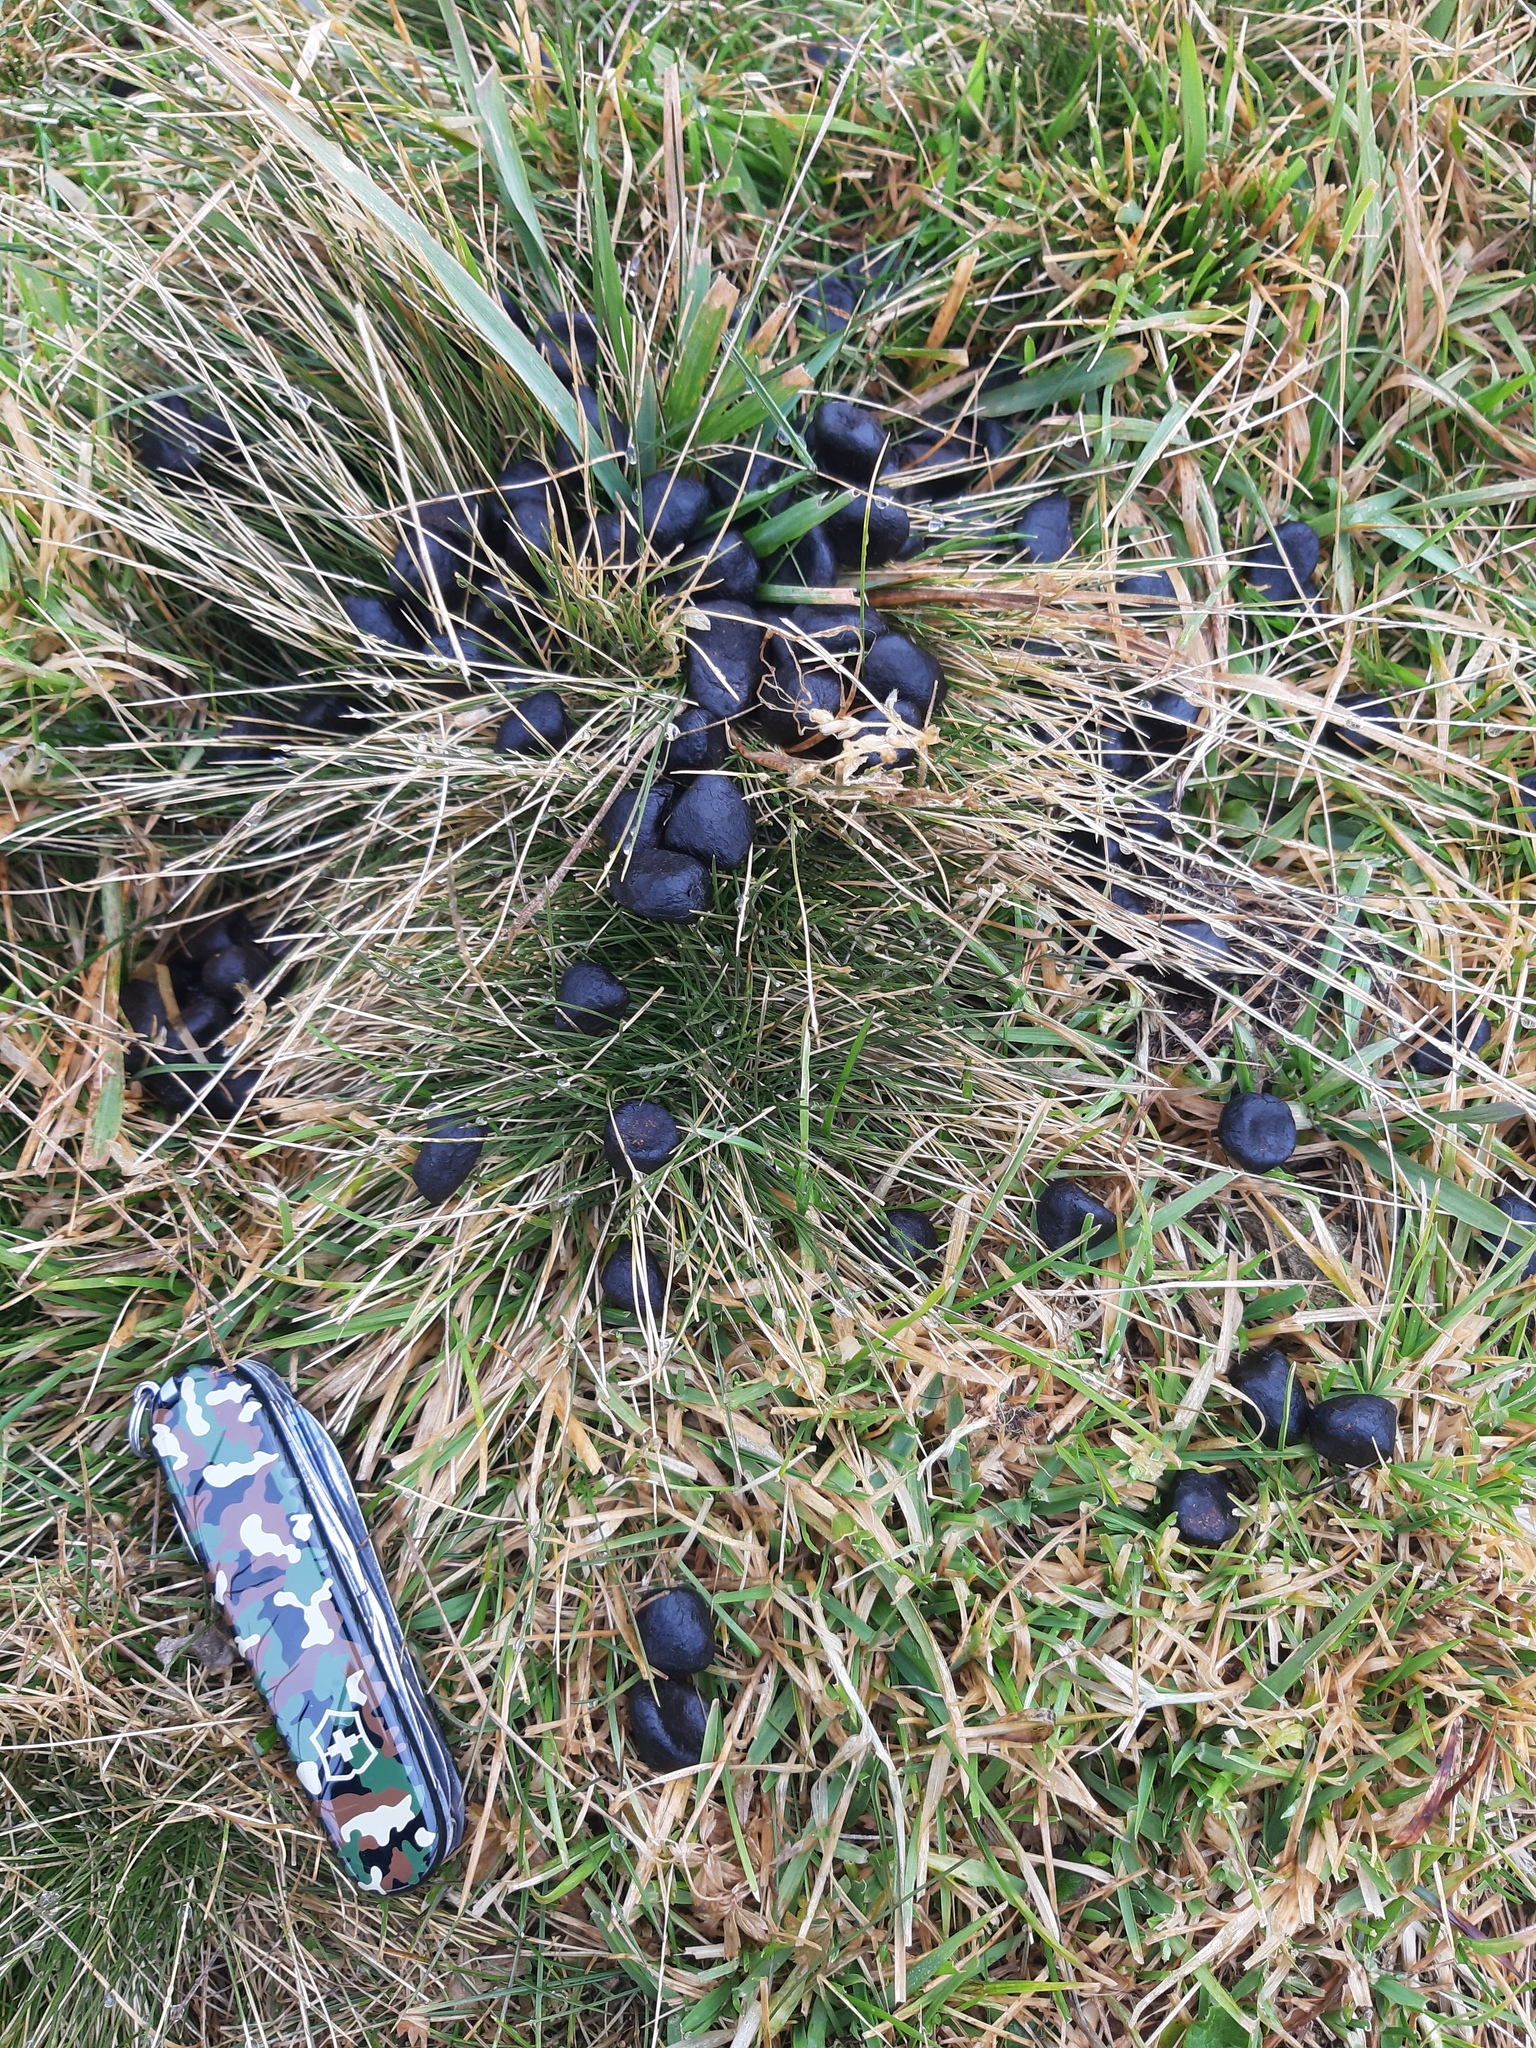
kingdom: Animalia
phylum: Chordata
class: Mammalia
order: Artiodactyla
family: Cervidae
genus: Cervus
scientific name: Cervus elaphus
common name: Red deer
